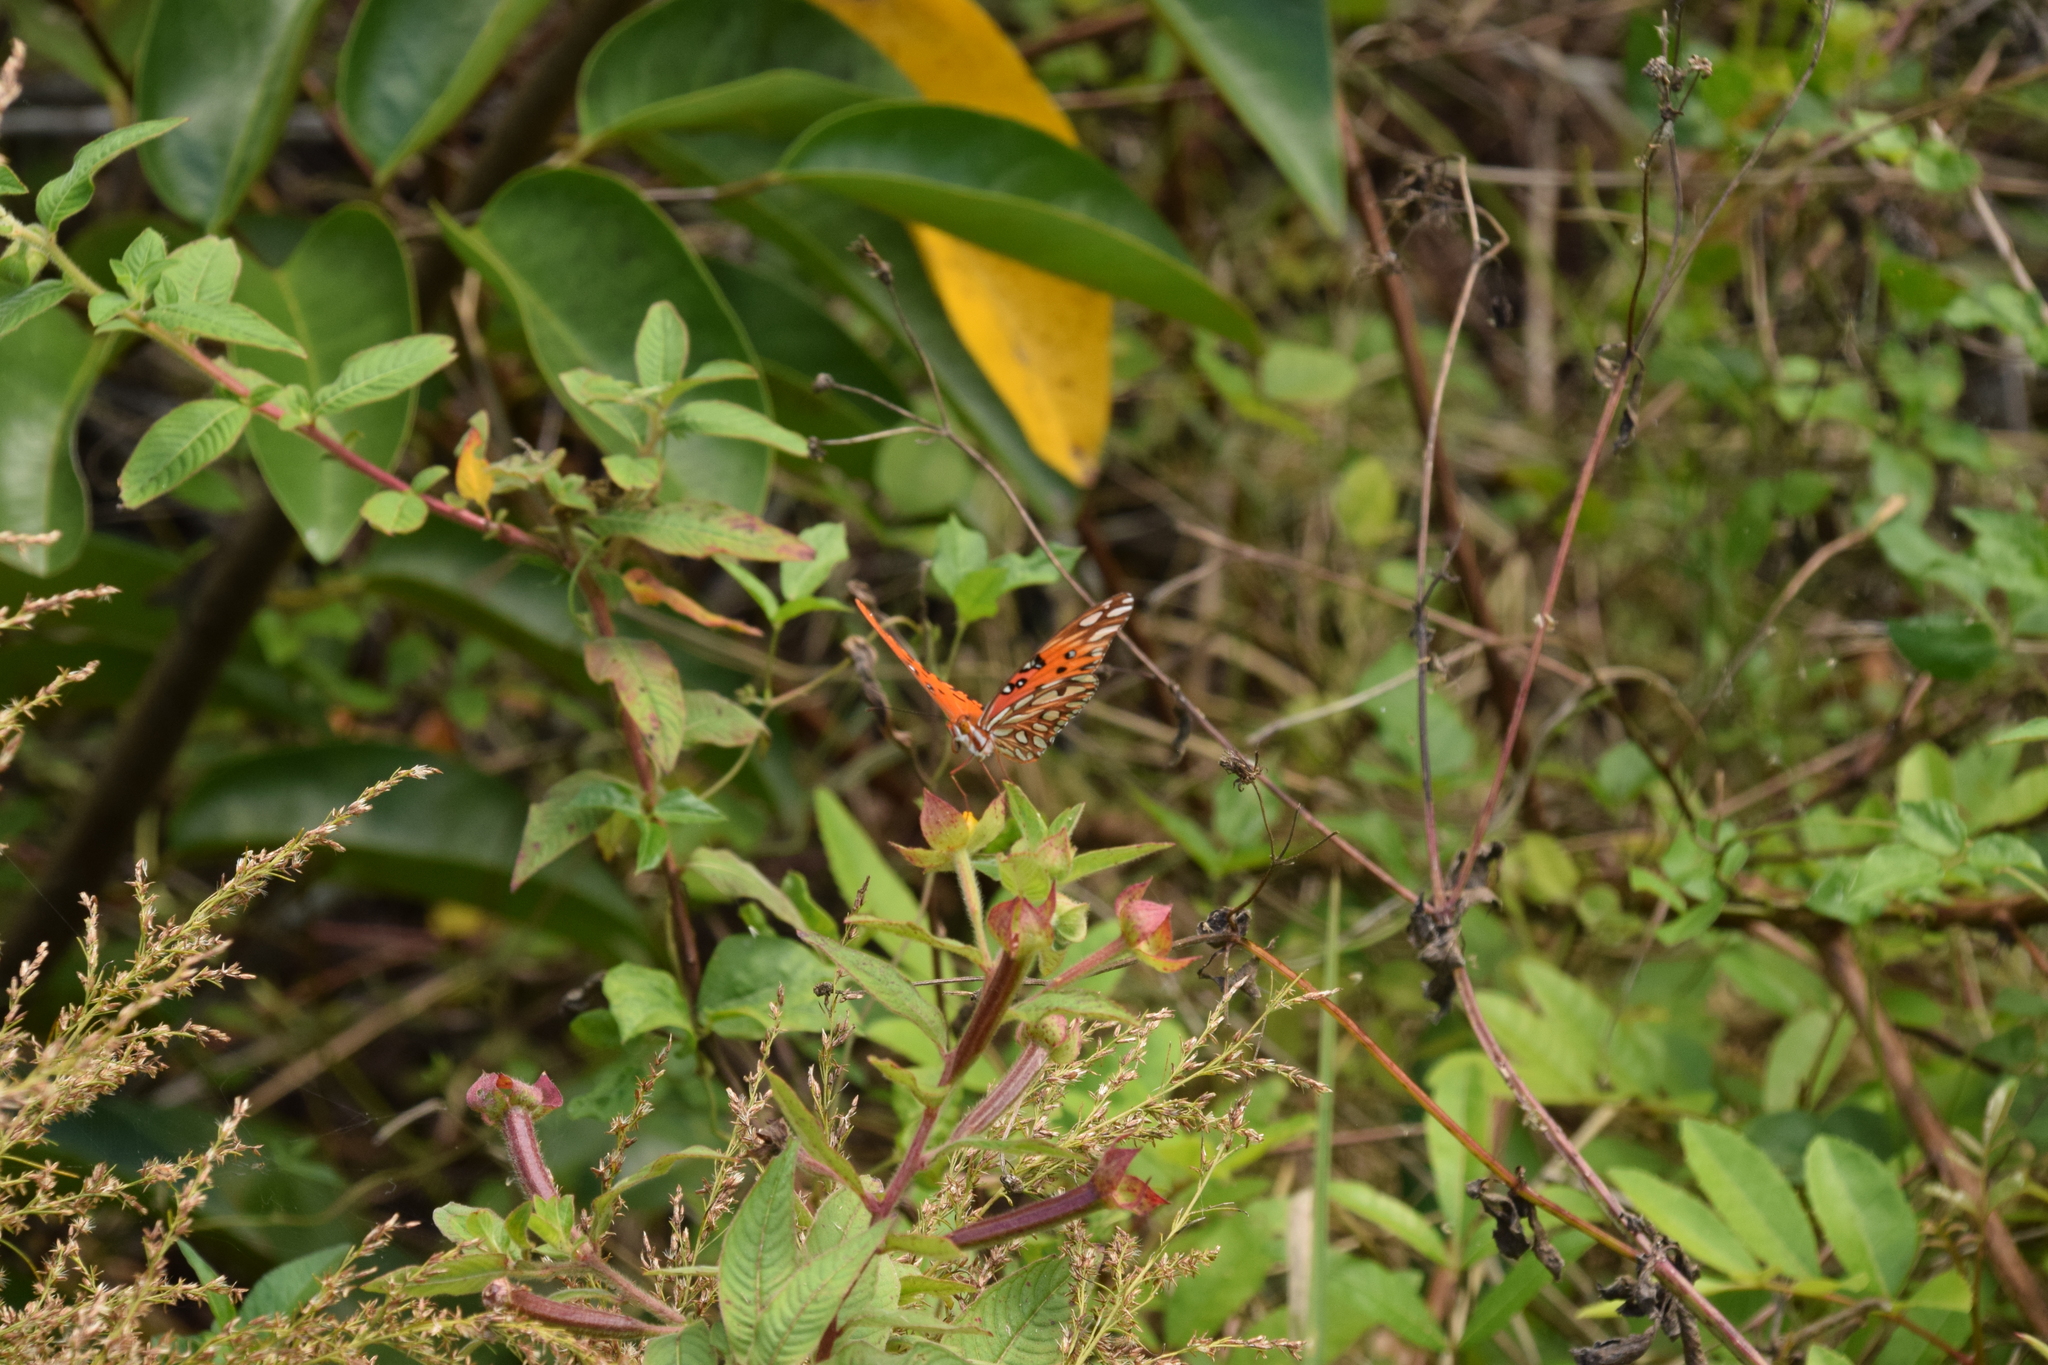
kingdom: Animalia
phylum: Arthropoda
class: Insecta
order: Lepidoptera
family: Nymphalidae
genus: Dione
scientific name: Dione vanillae
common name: Gulf fritillary
